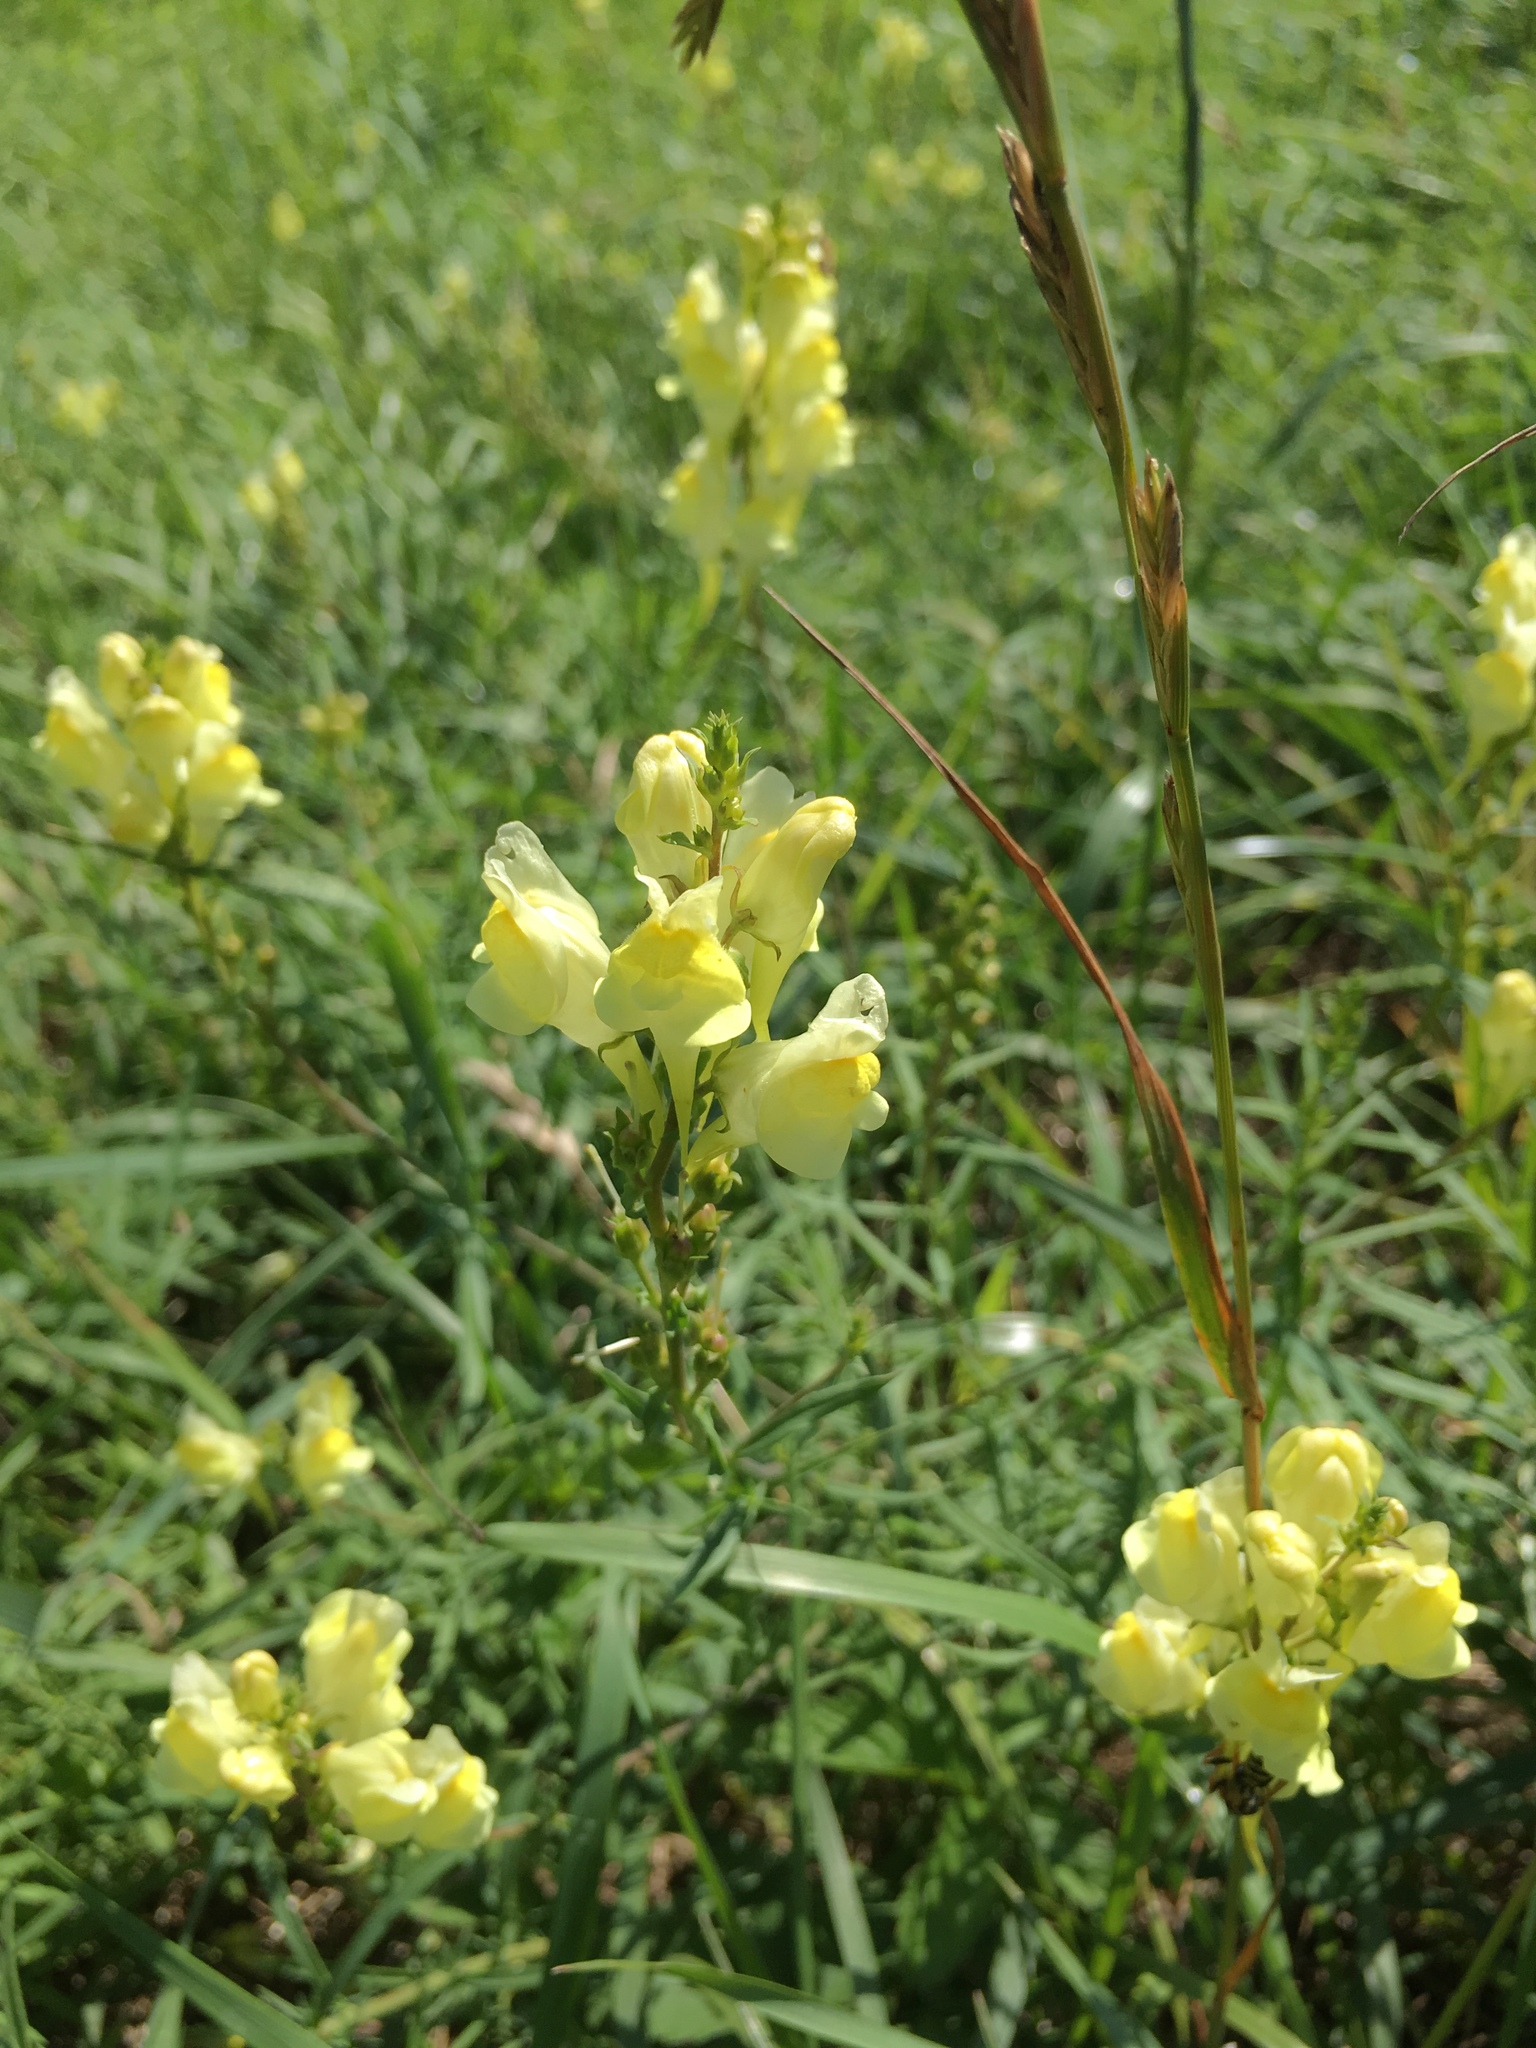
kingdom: Plantae
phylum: Tracheophyta
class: Magnoliopsida
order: Lamiales
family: Plantaginaceae
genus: Linaria
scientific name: Linaria vulgaris
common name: Butter and eggs
